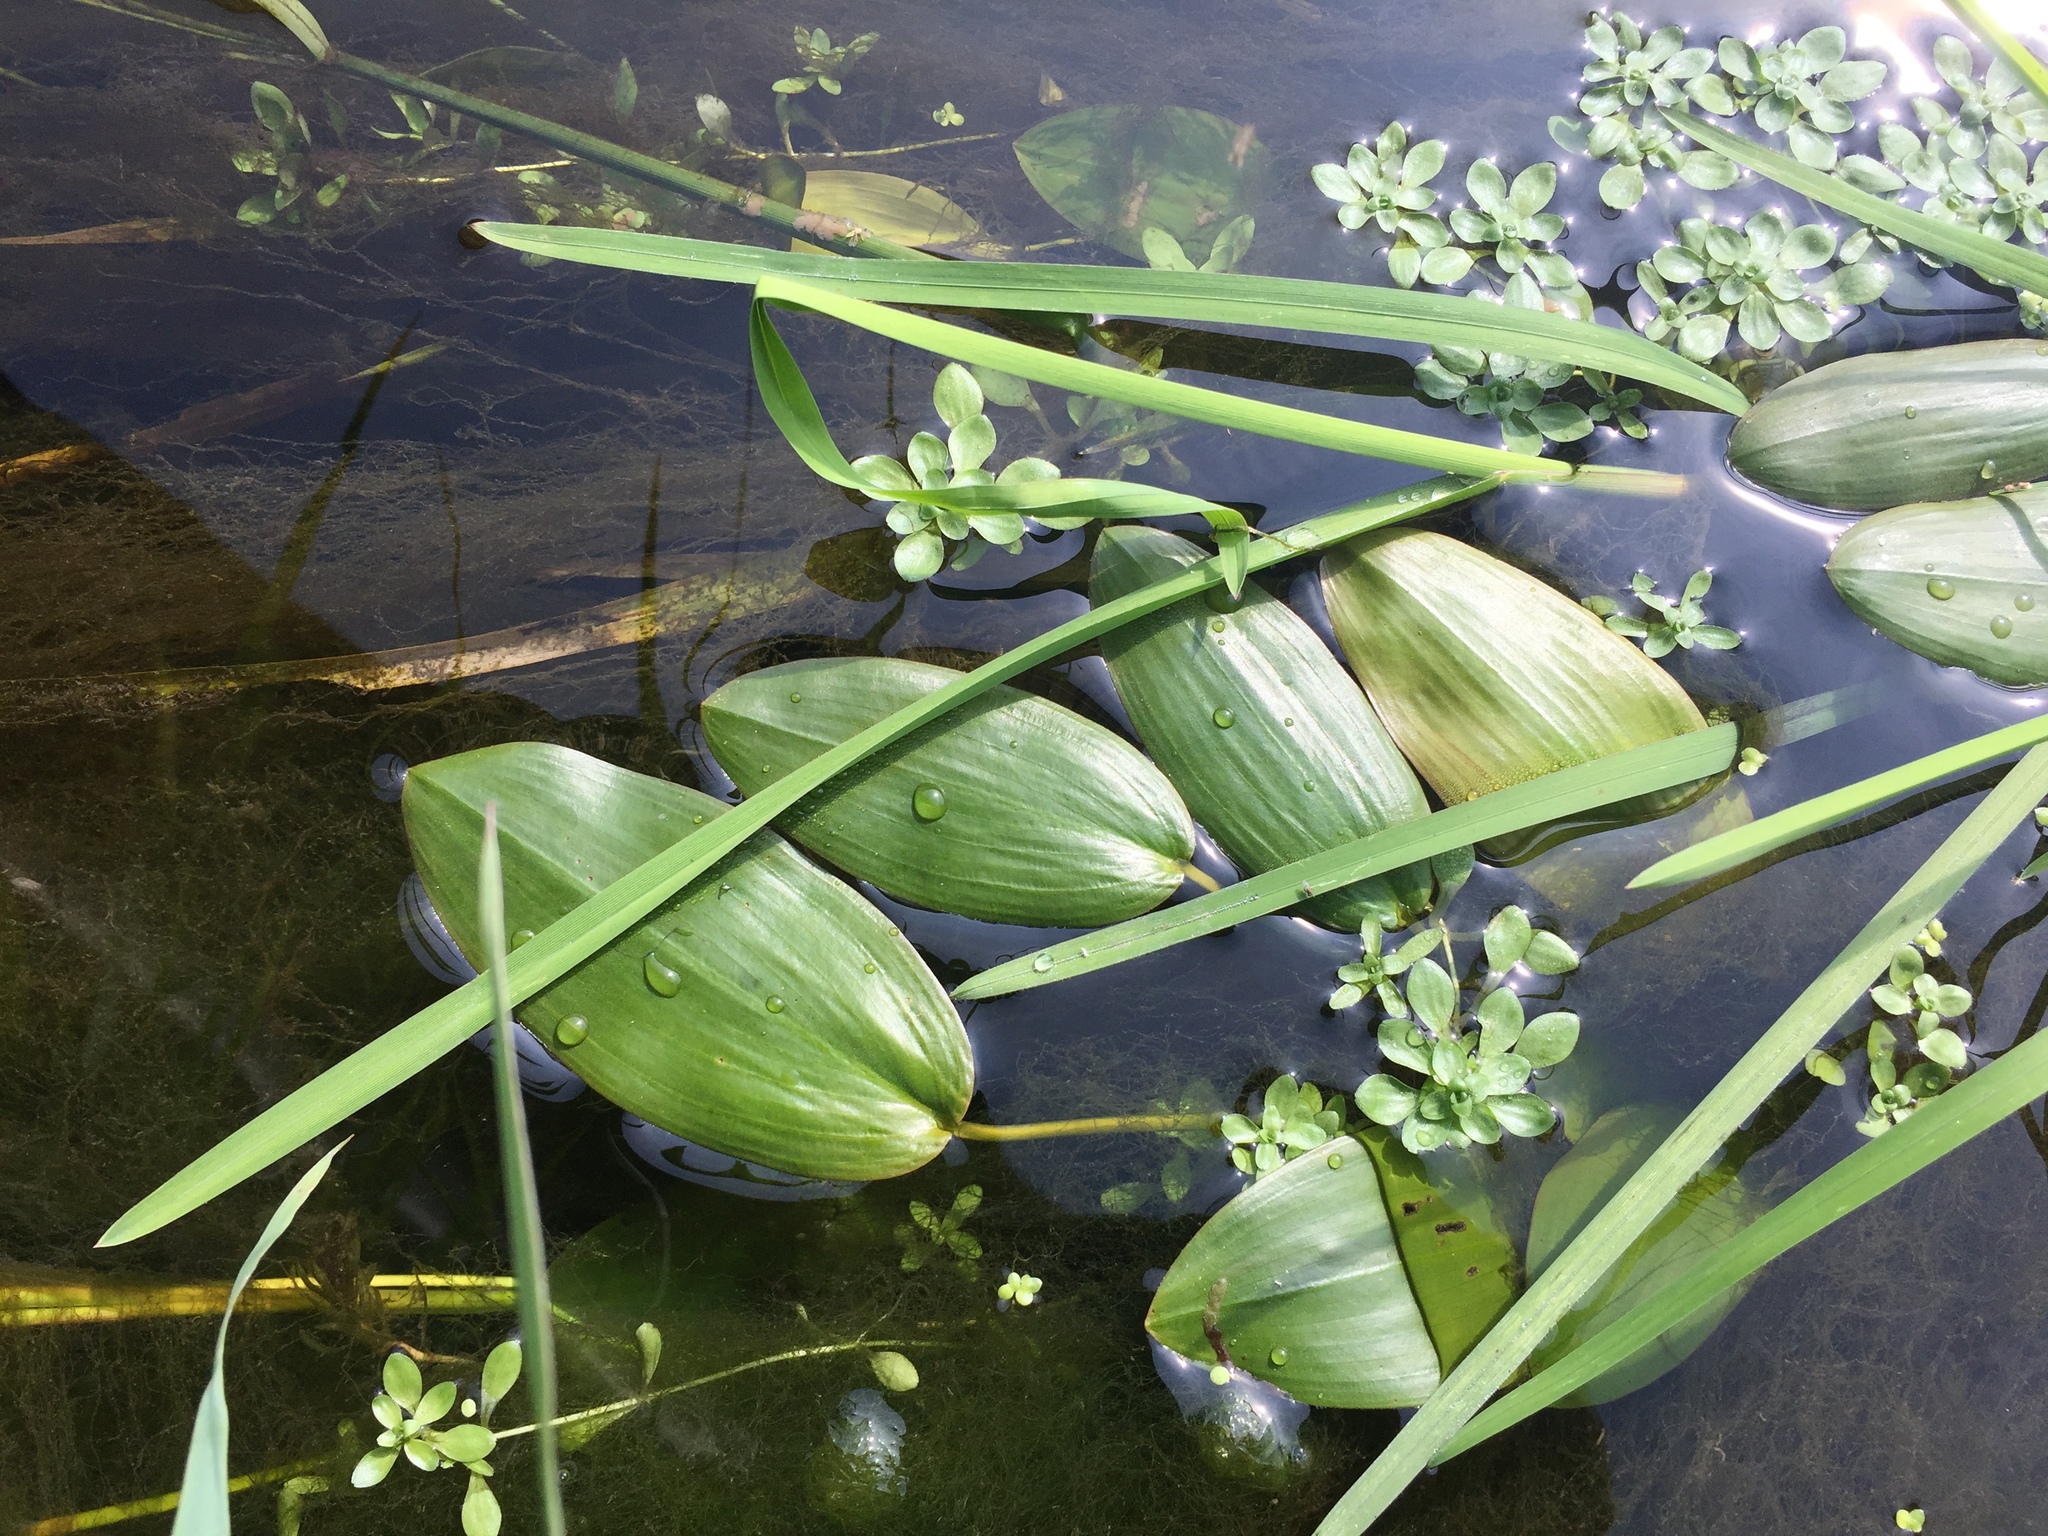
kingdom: Plantae
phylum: Tracheophyta
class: Liliopsida
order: Alismatales
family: Potamogetonaceae
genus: Potamogeton
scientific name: Potamogeton natans
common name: Broad-leaved pondweed
